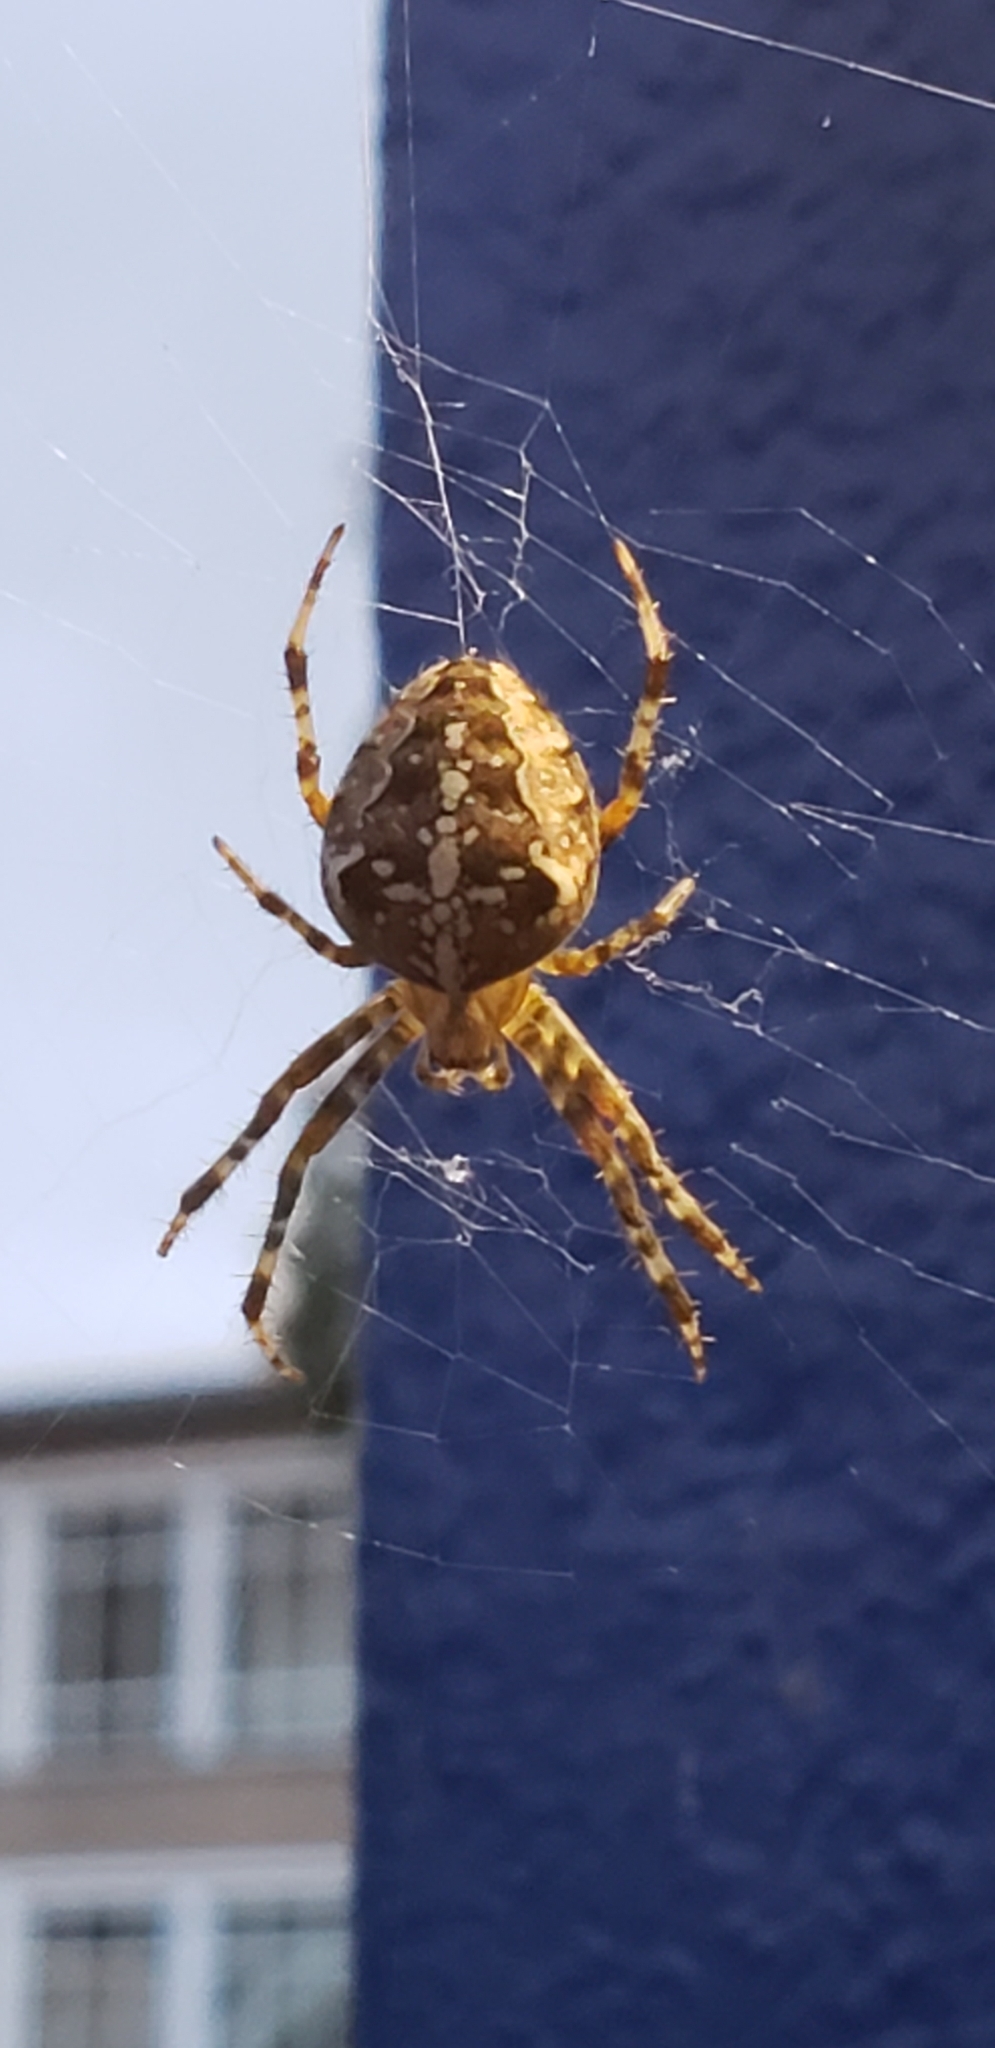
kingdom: Animalia
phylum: Arthropoda
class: Arachnida
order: Araneae
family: Araneidae
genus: Araneus
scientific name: Araneus diadematus
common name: Cross orbweaver
